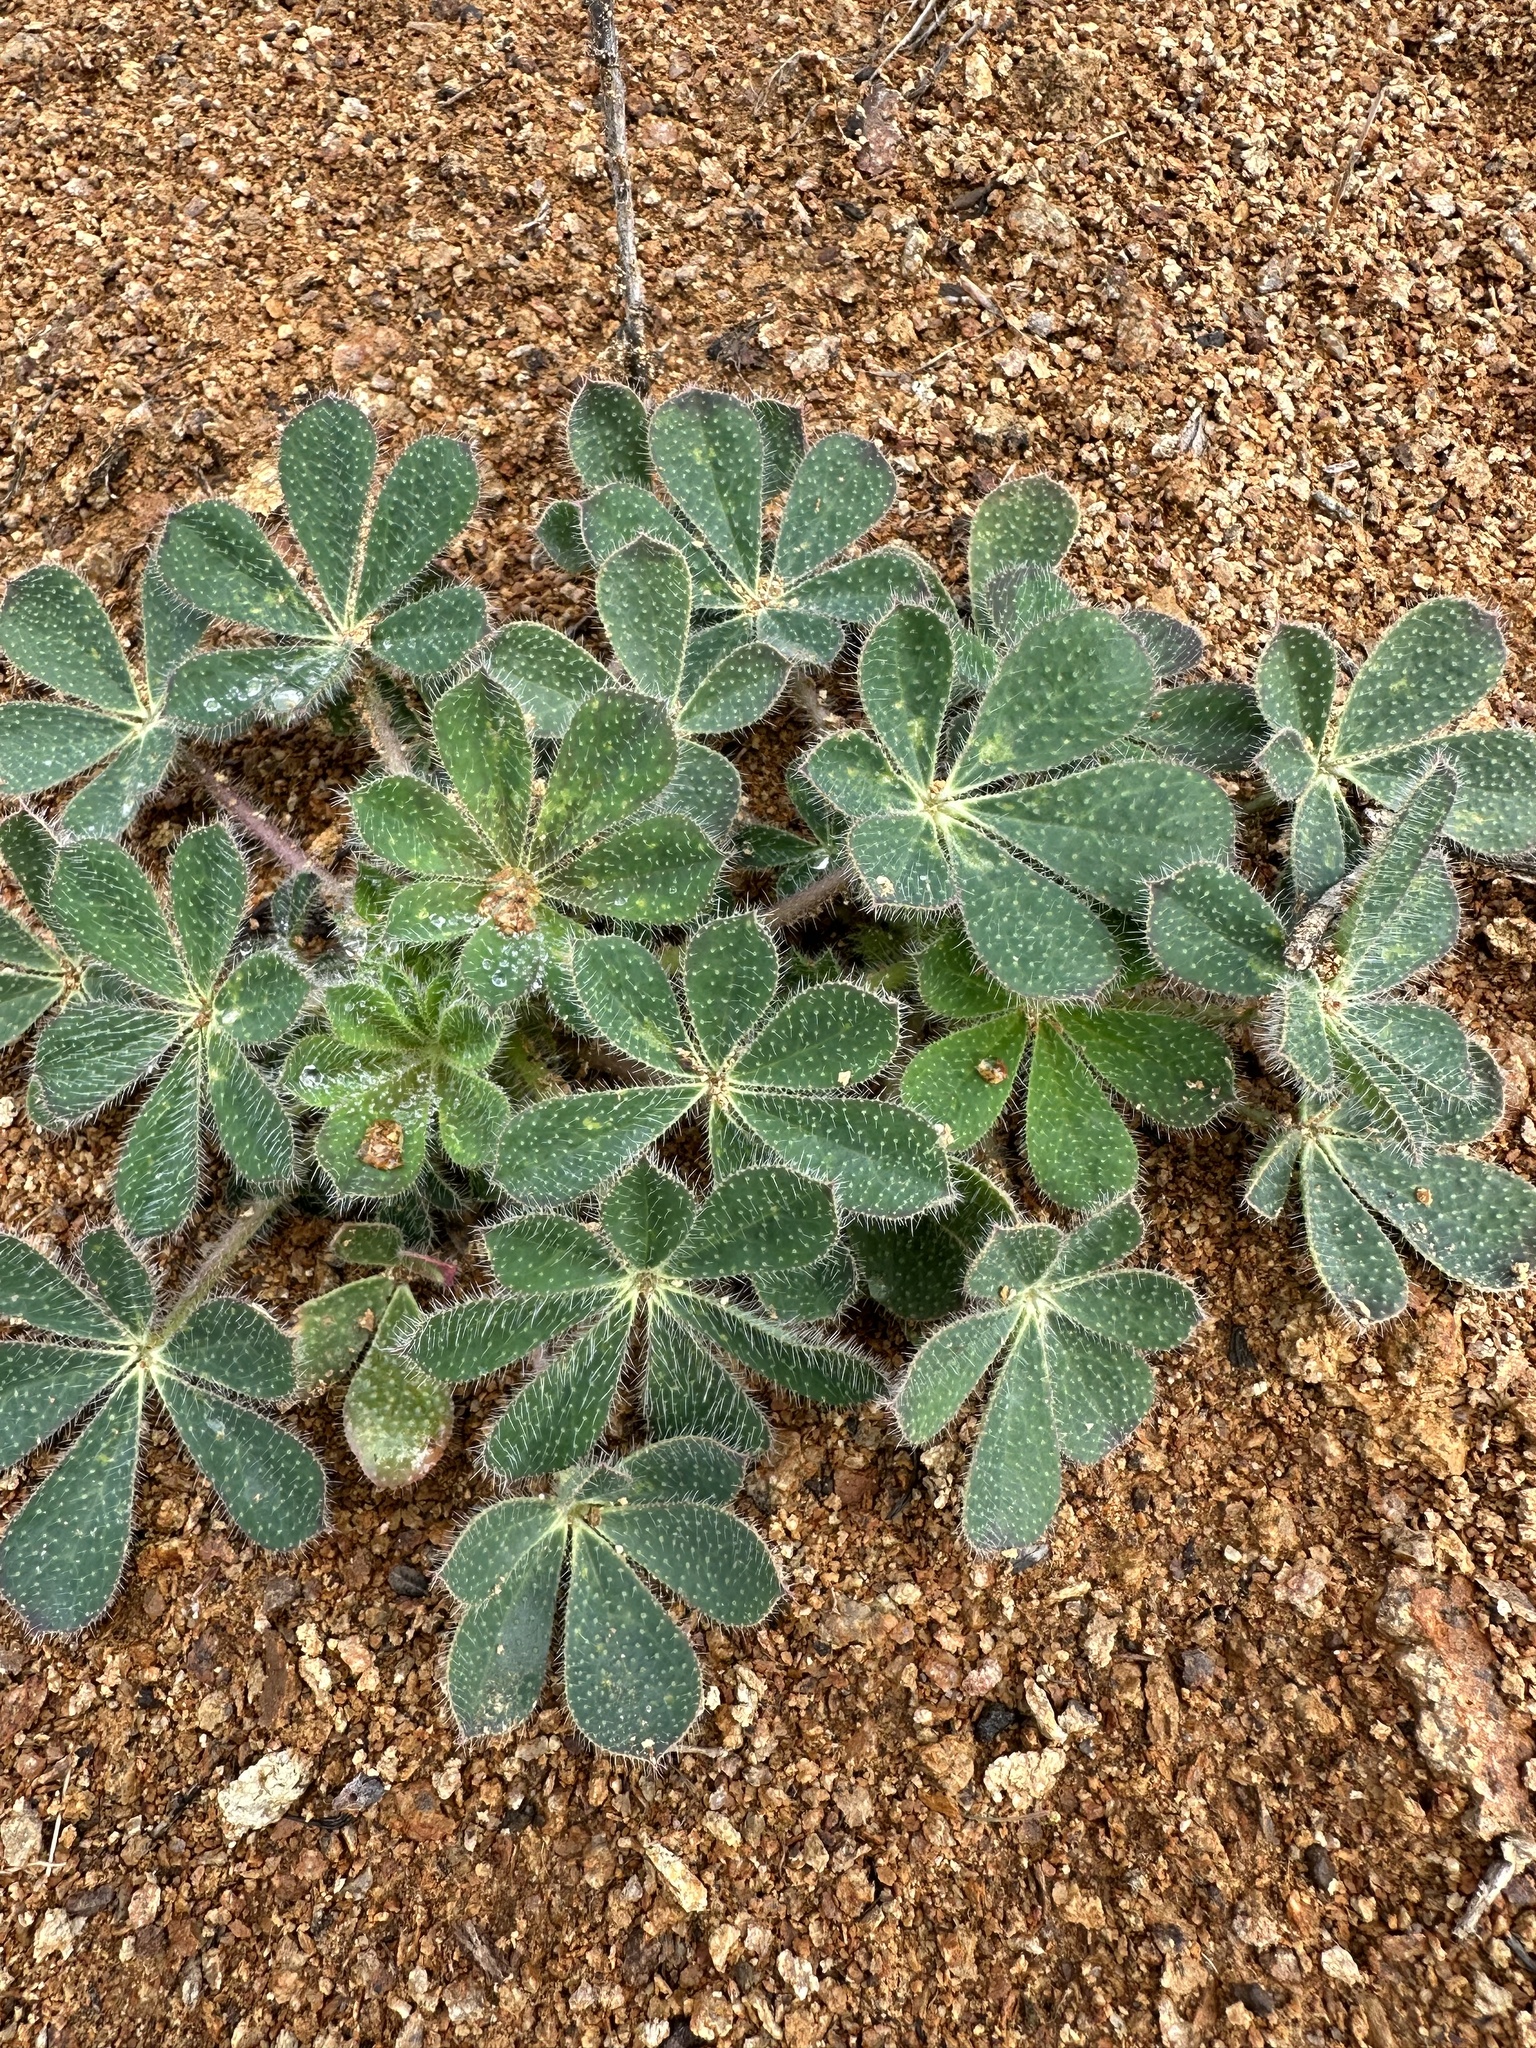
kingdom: Plantae
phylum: Tracheophyta
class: Magnoliopsida
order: Fabales
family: Fabaceae
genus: Lupinus
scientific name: Lupinus hirsutissimus
